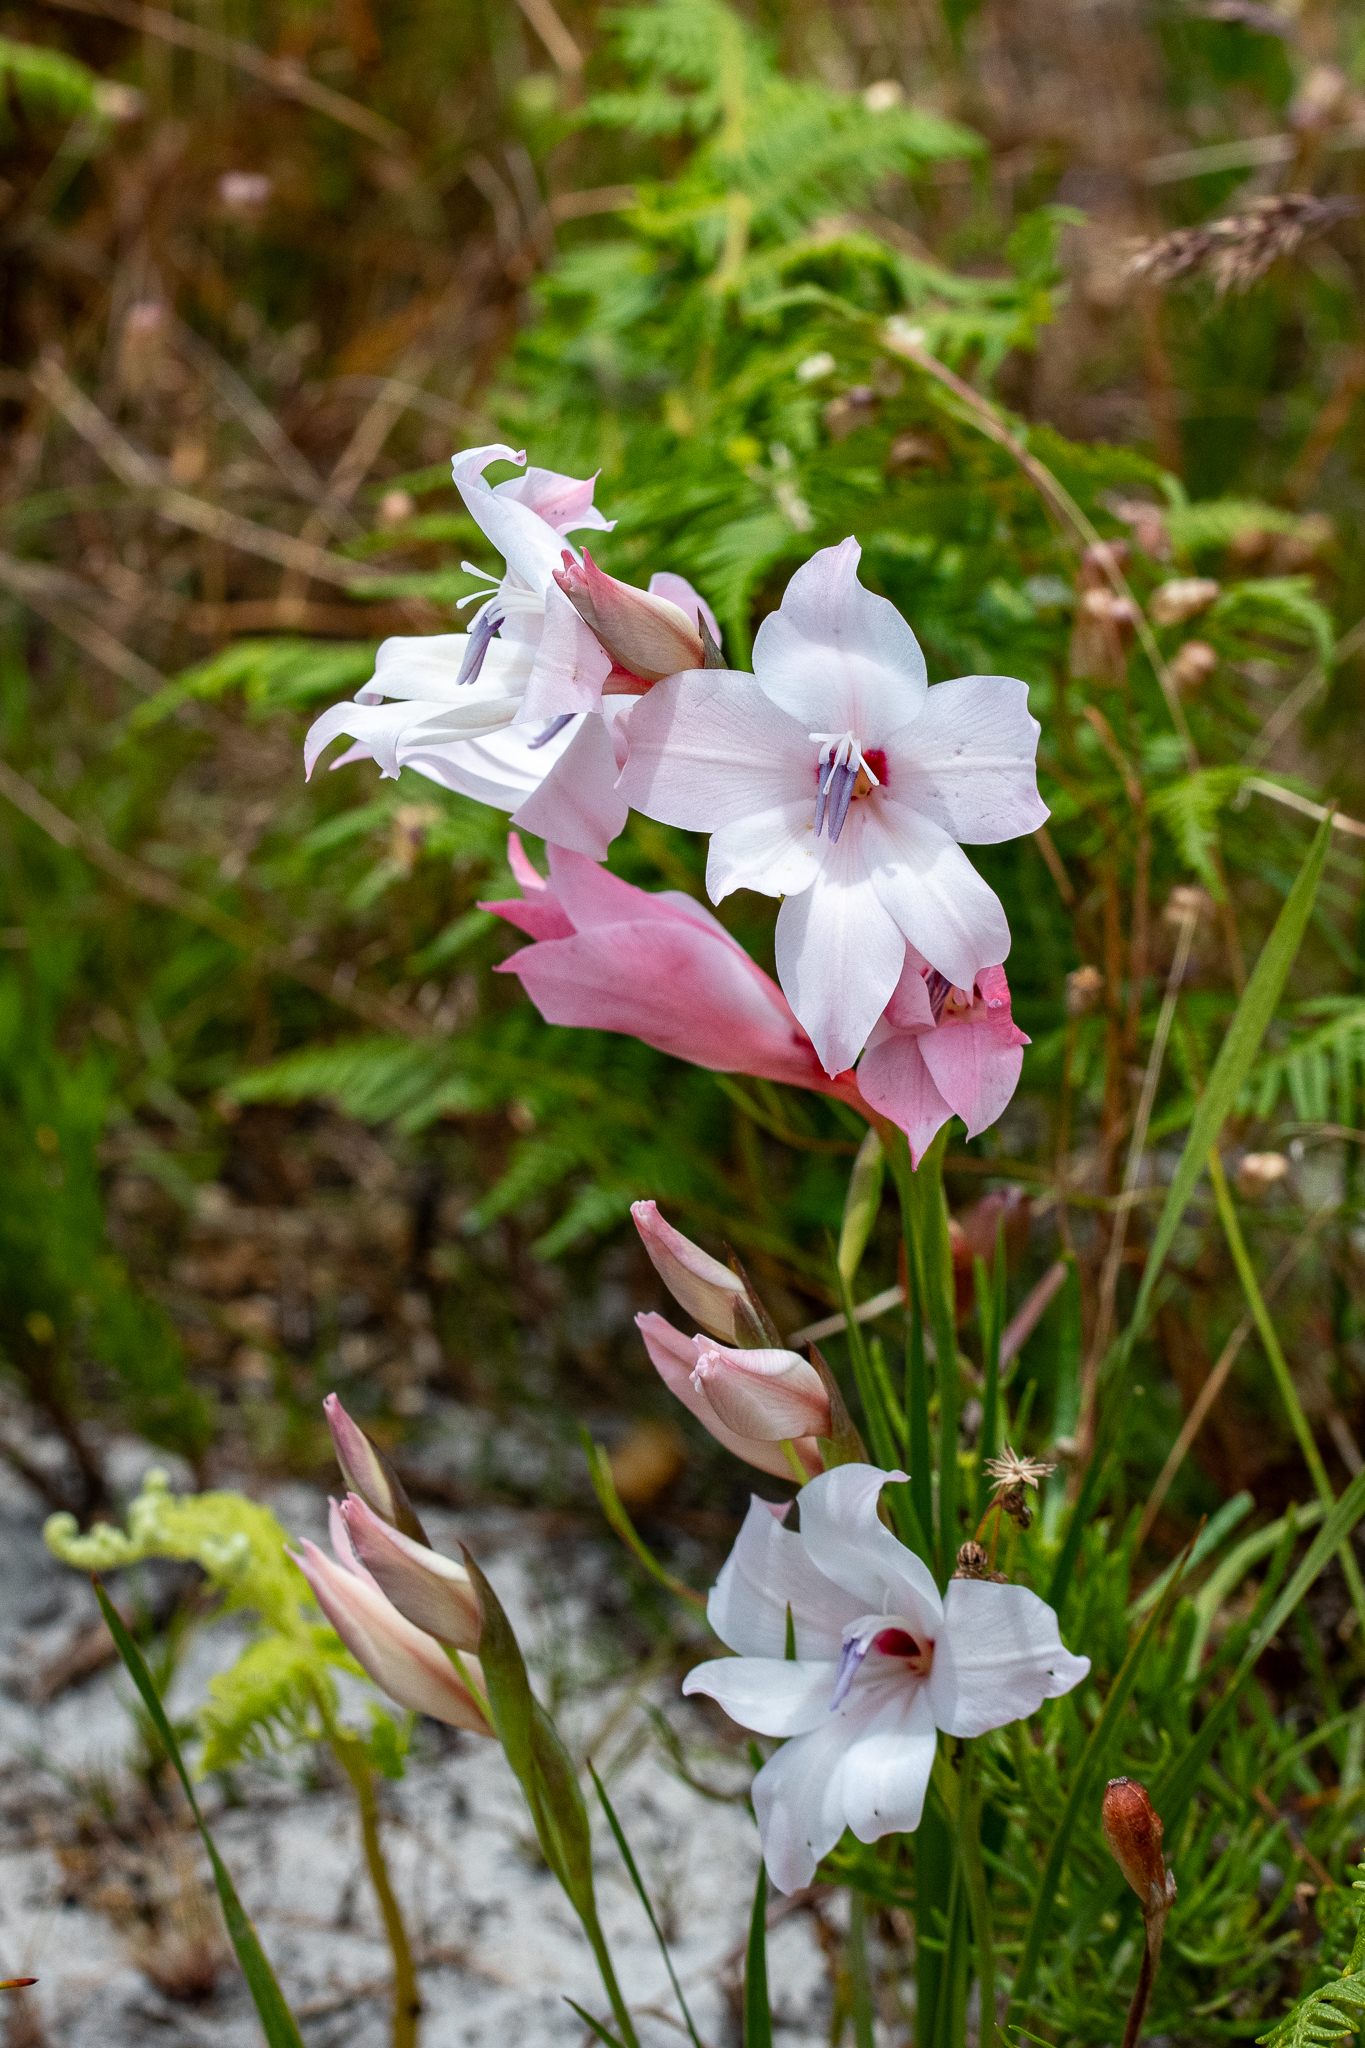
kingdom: Plantae
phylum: Tracheophyta
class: Liliopsida
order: Asparagales
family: Iridaceae
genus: Gladiolus
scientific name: Gladiolus carneus
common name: Painted-lady
